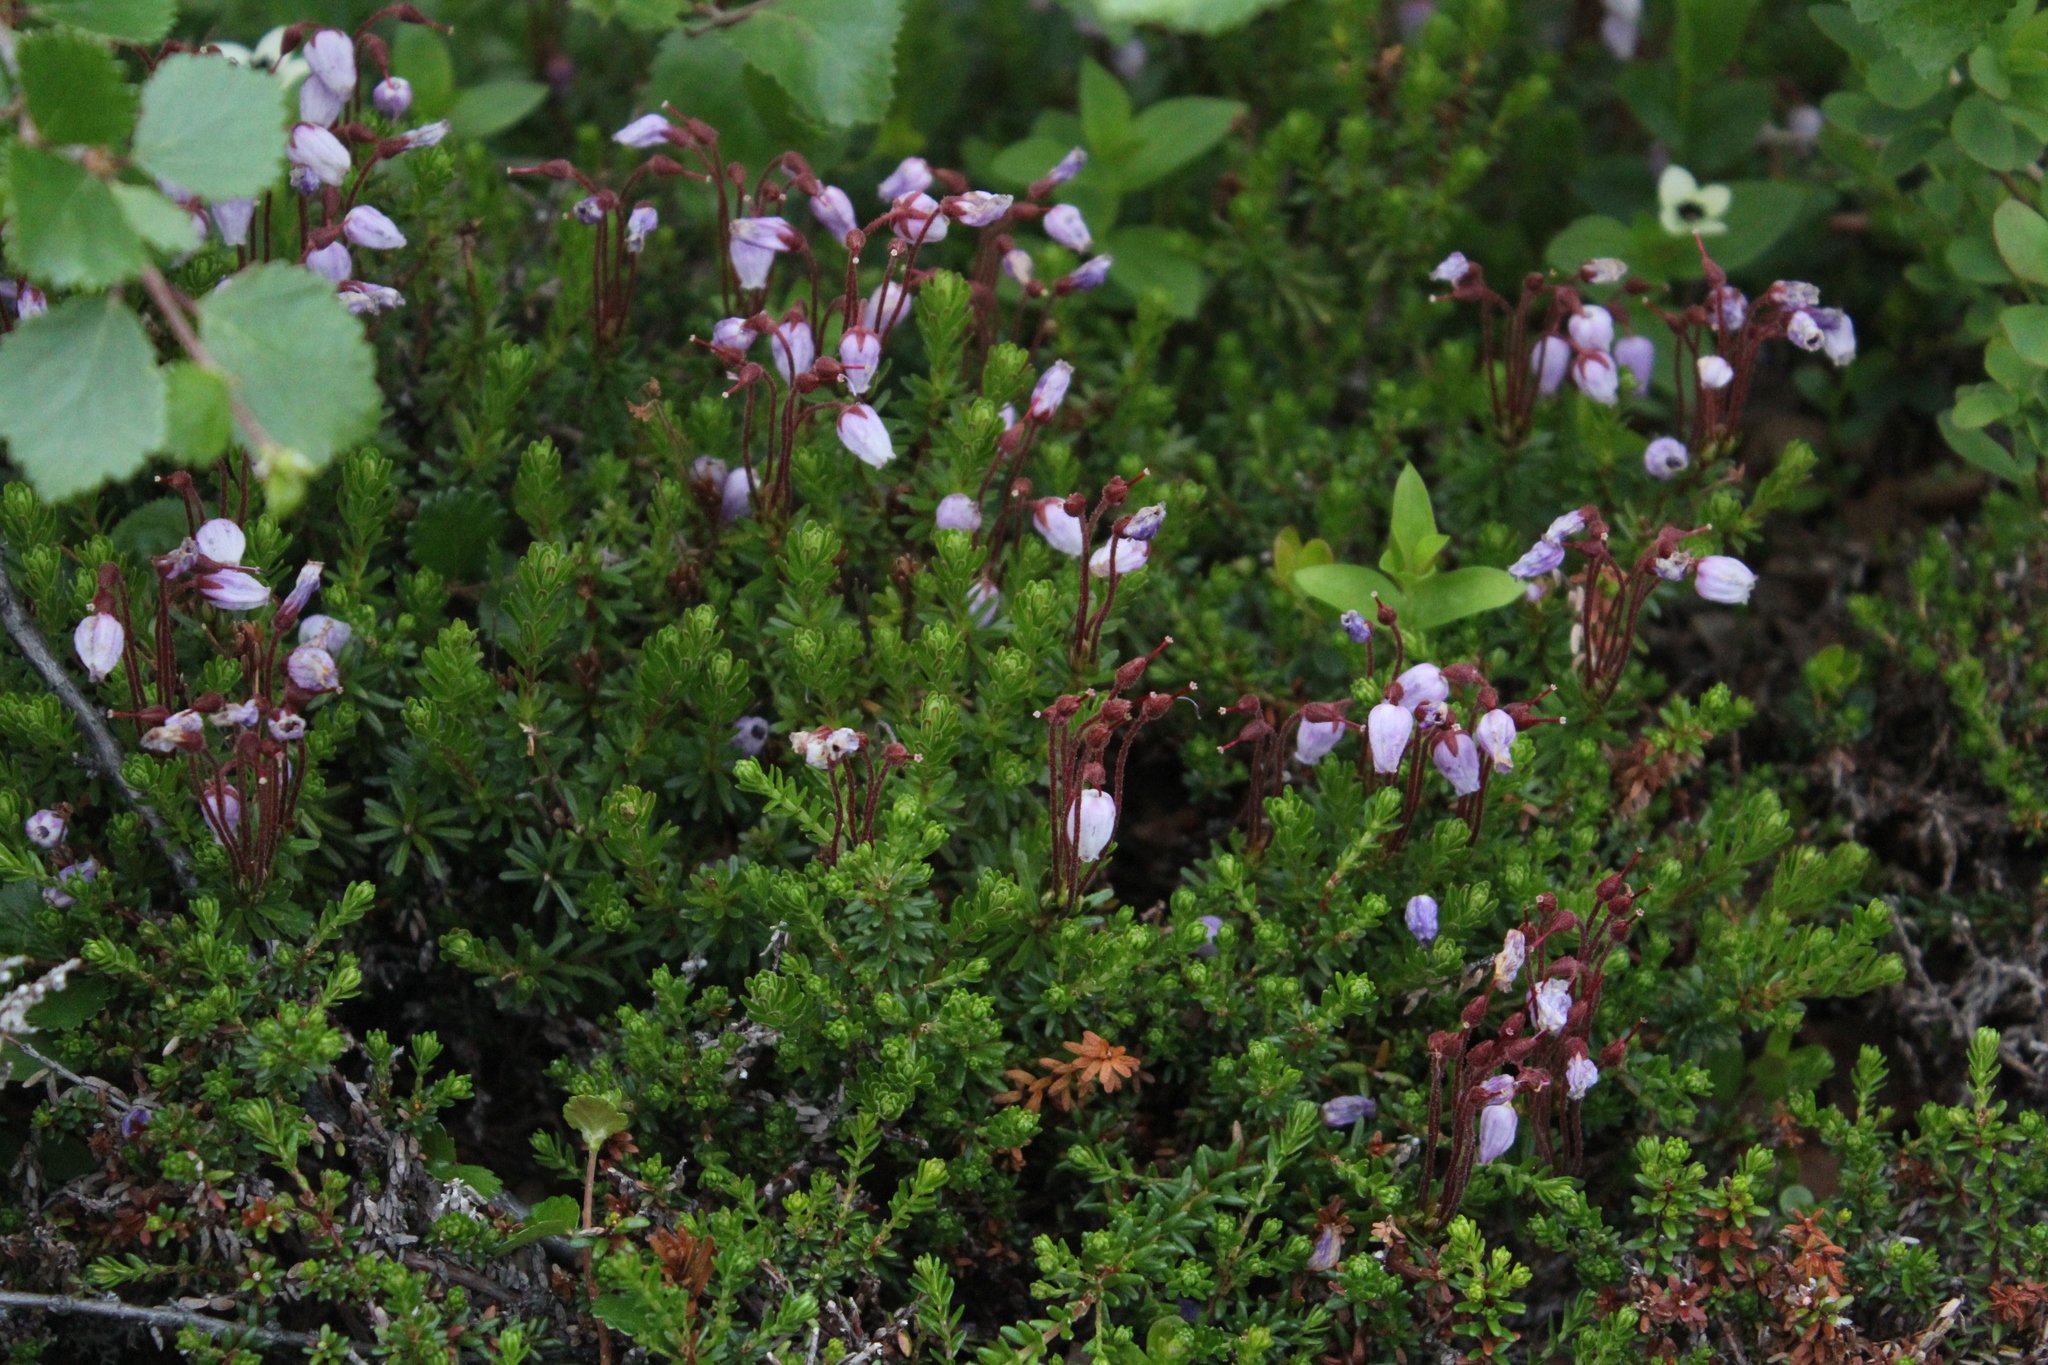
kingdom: Plantae
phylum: Tracheophyta
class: Magnoliopsida
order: Ericales
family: Ericaceae
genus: Phyllodoce
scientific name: Phyllodoce caerulea
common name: Blue heath
